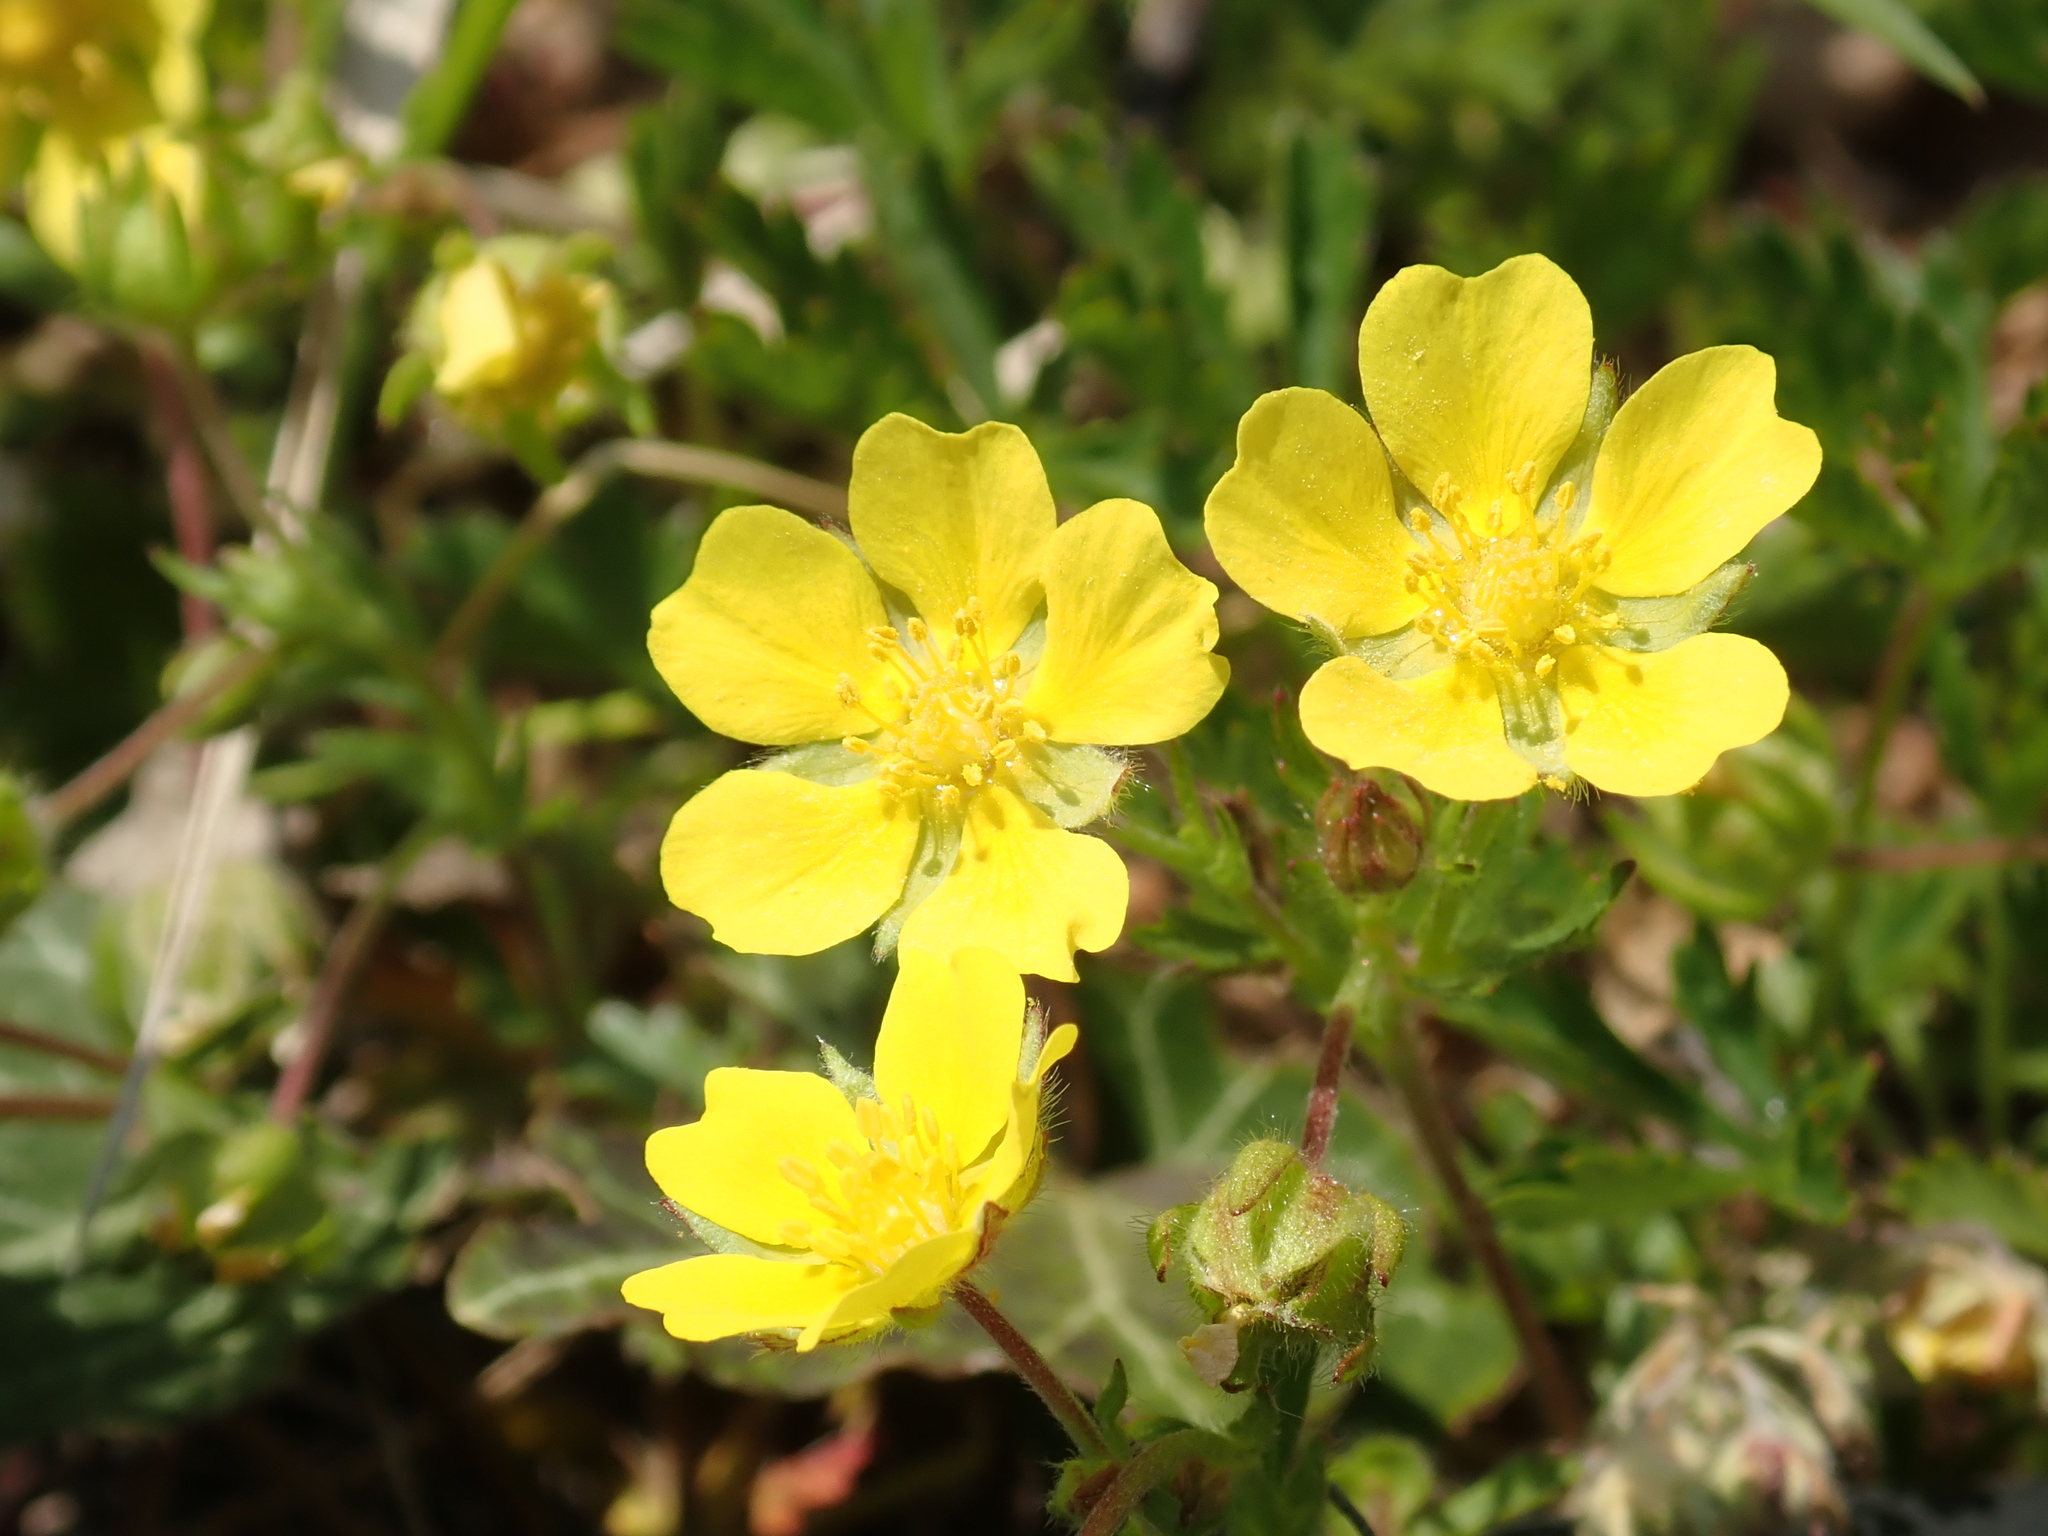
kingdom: Plantae
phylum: Tracheophyta
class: Magnoliopsida
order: Rosales
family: Rosaceae
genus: Potentilla
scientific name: Potentilla verna
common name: Spring cinquefoil
